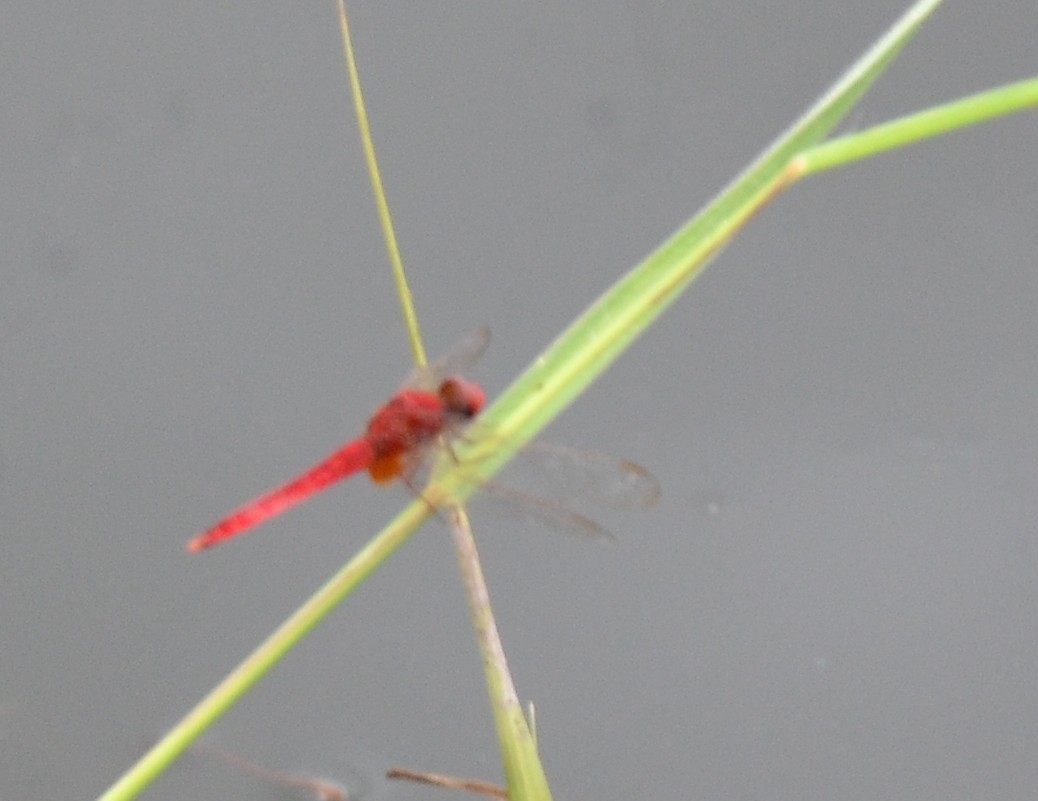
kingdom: Animalia
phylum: Arthropoda
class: Insecta
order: Odonata
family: Libellulidae
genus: Crocothemis
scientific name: Crocothemis servilia
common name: Scarlet skimmer
